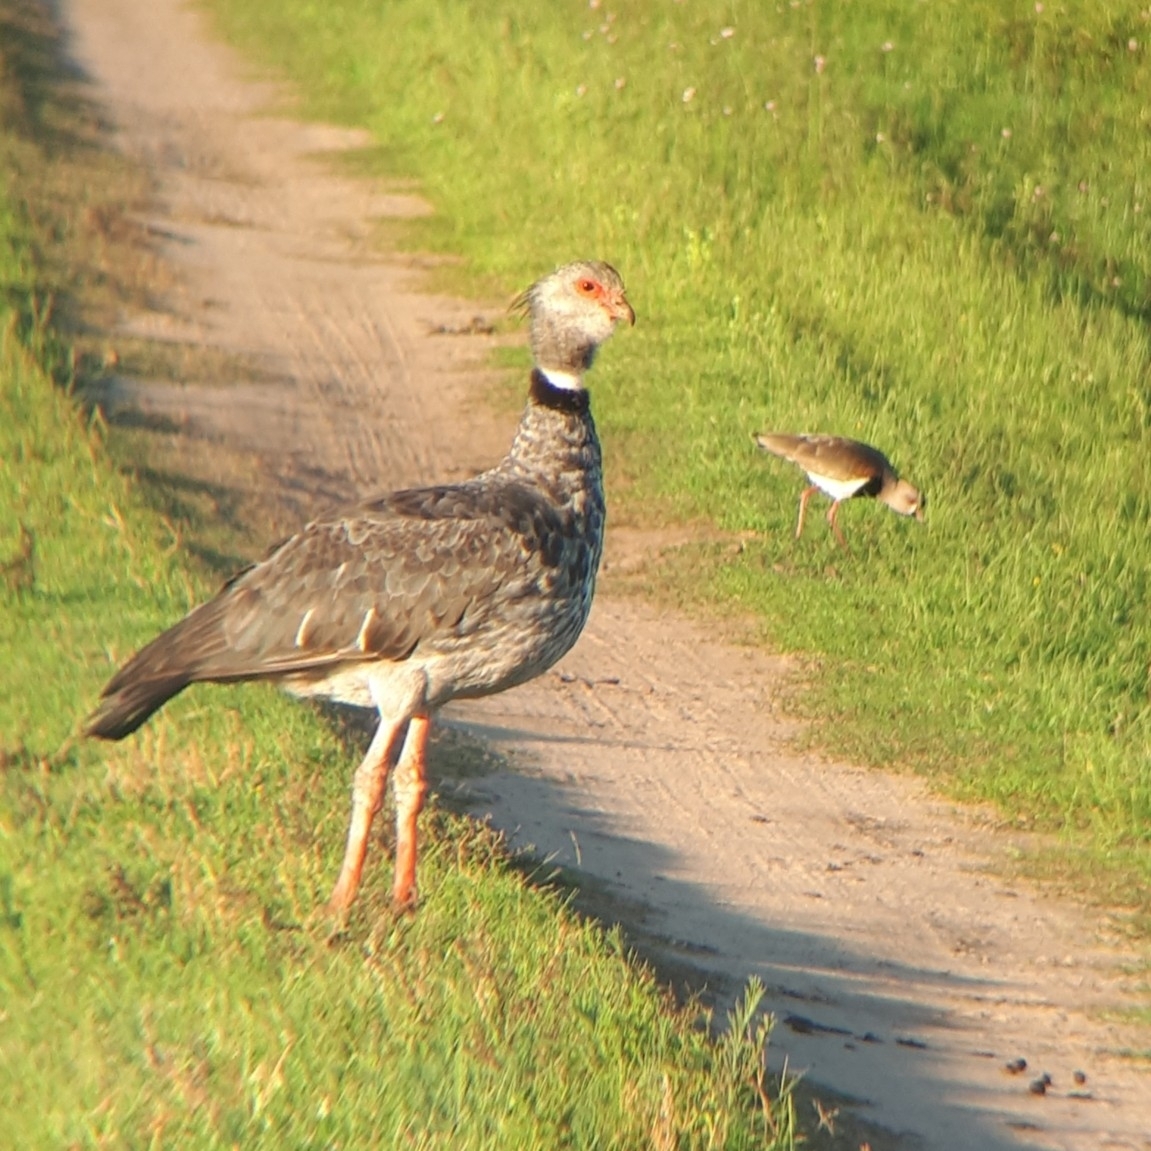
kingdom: Animalia
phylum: Chordata
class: Aves
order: Anseriformes
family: Anhimidae
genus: Chauna
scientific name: Chauna torquata
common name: Southern screamer
